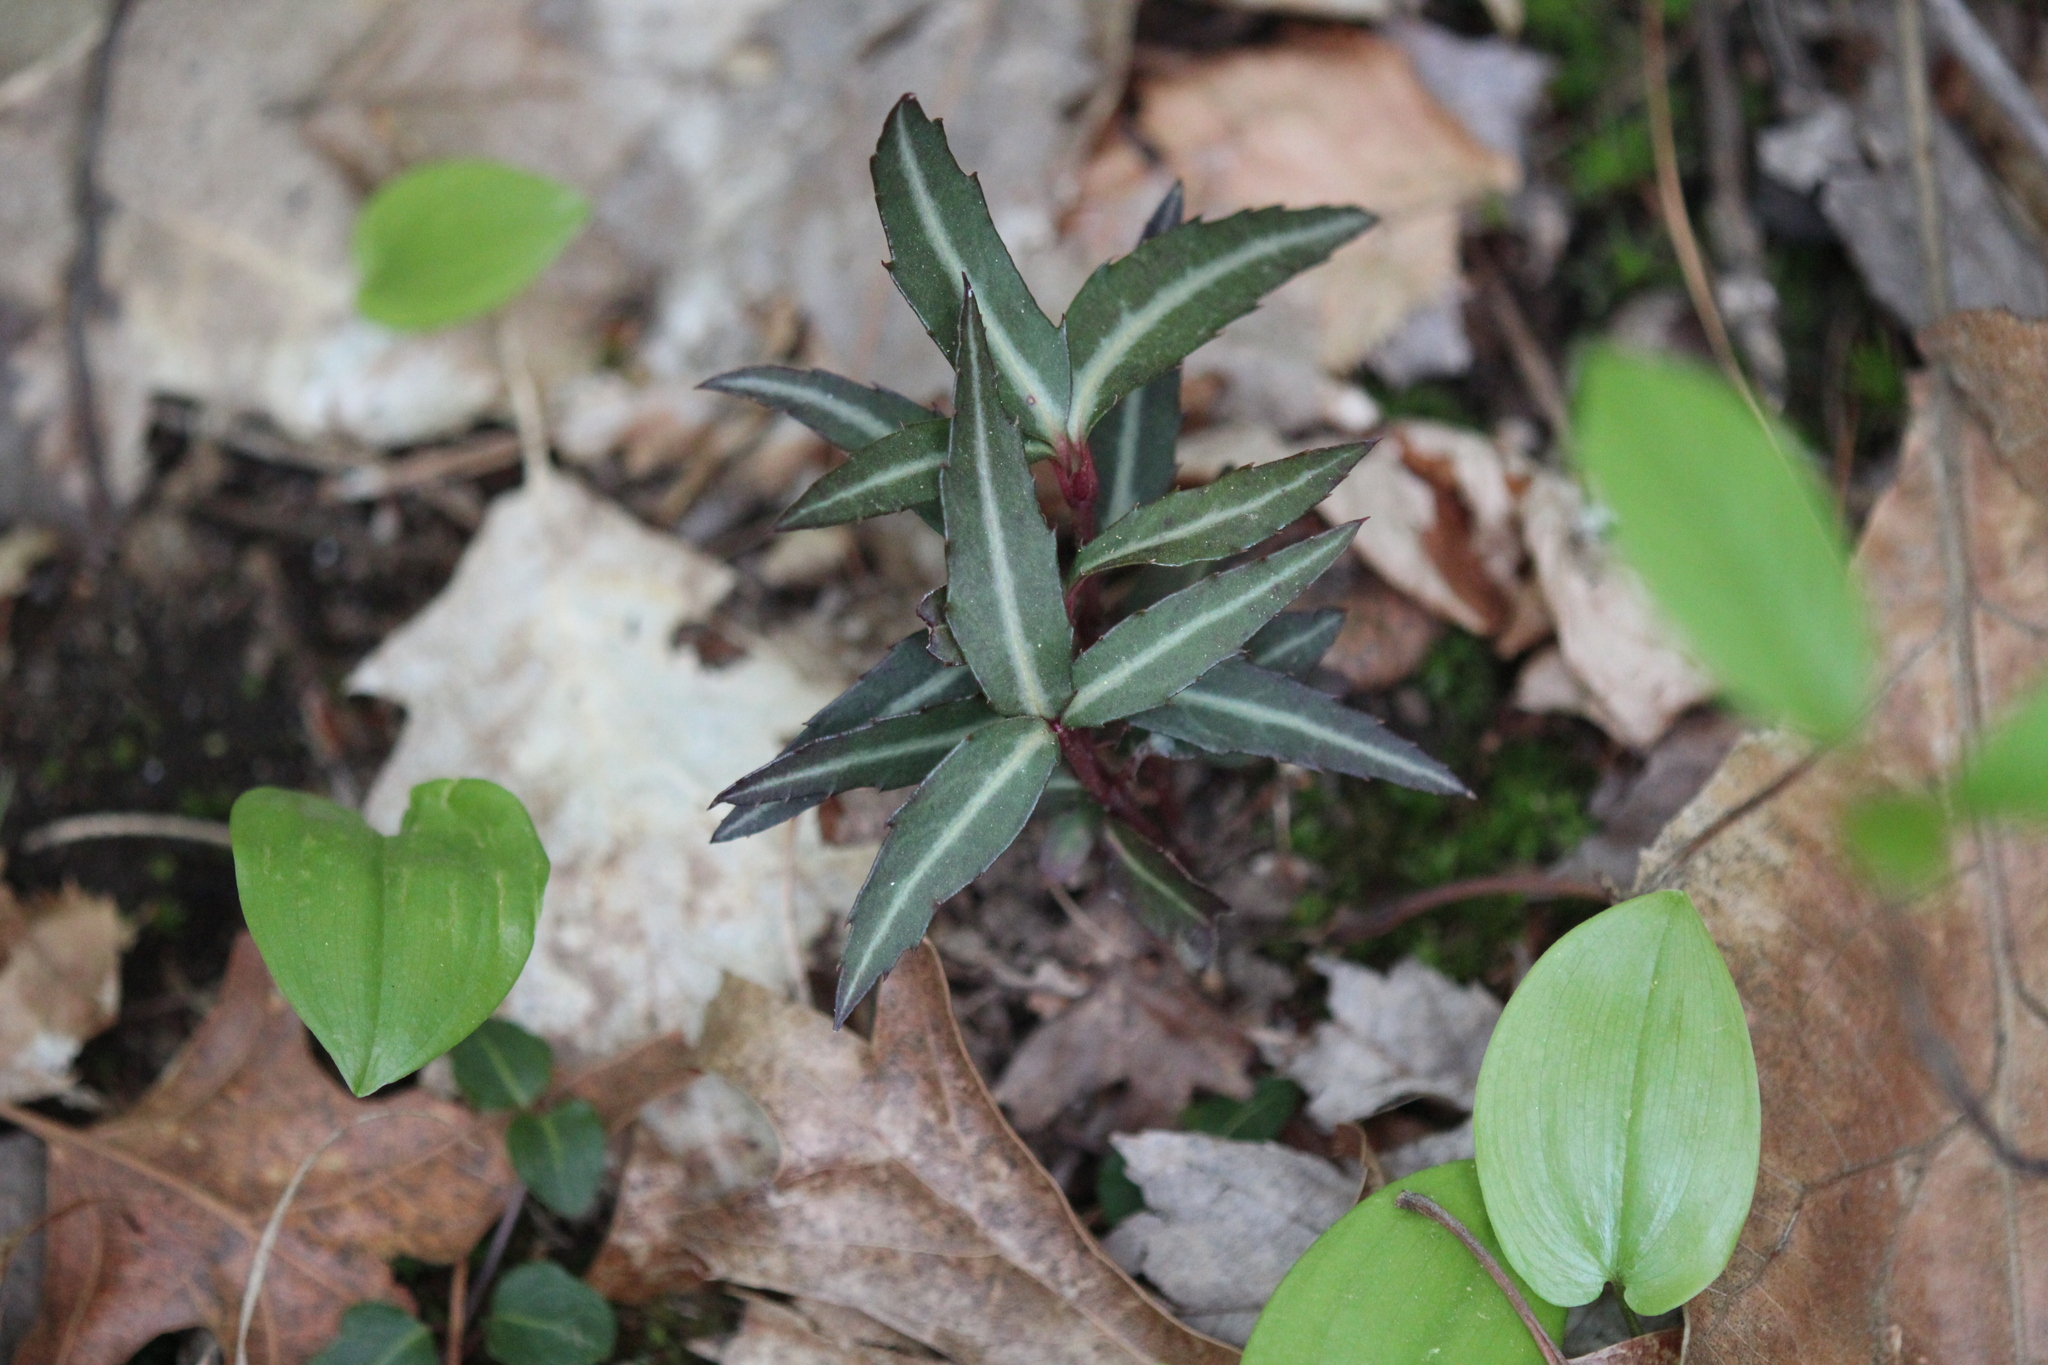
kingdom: Plantae
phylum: Tracheophyta
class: Magnoliopsida
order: Ericales
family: Ericaceae
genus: Chimaphila
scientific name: Chimaphila maculata
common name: Spotted pipsissewa
